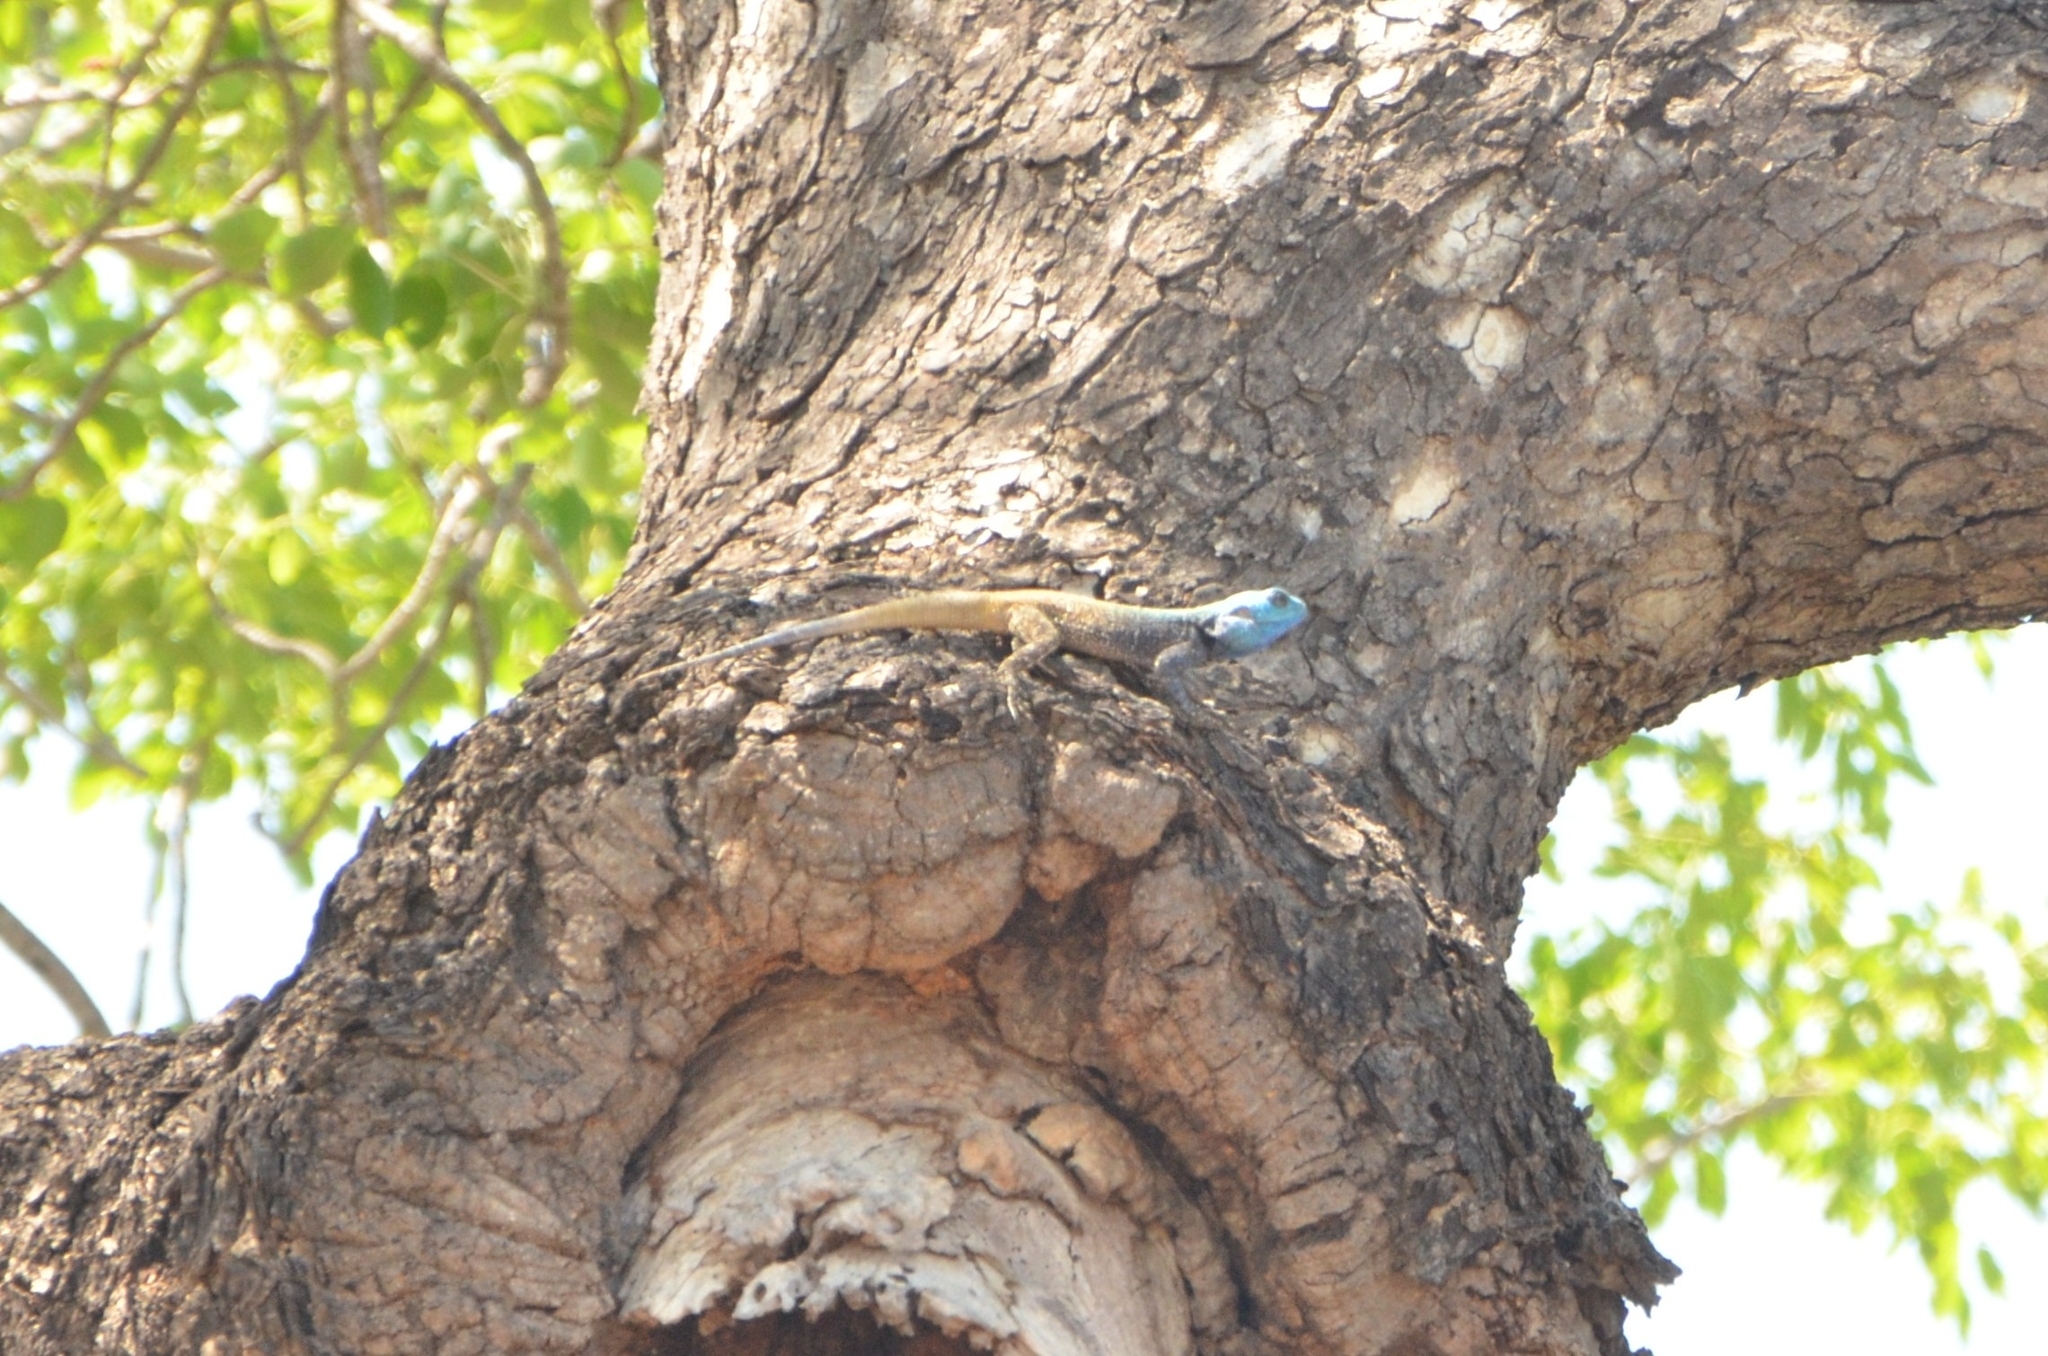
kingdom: Animalia
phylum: Chordata
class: Squamata
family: Agamidae
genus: Acanthocercus
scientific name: Acanthocercus atricollis
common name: Southern tree agama
